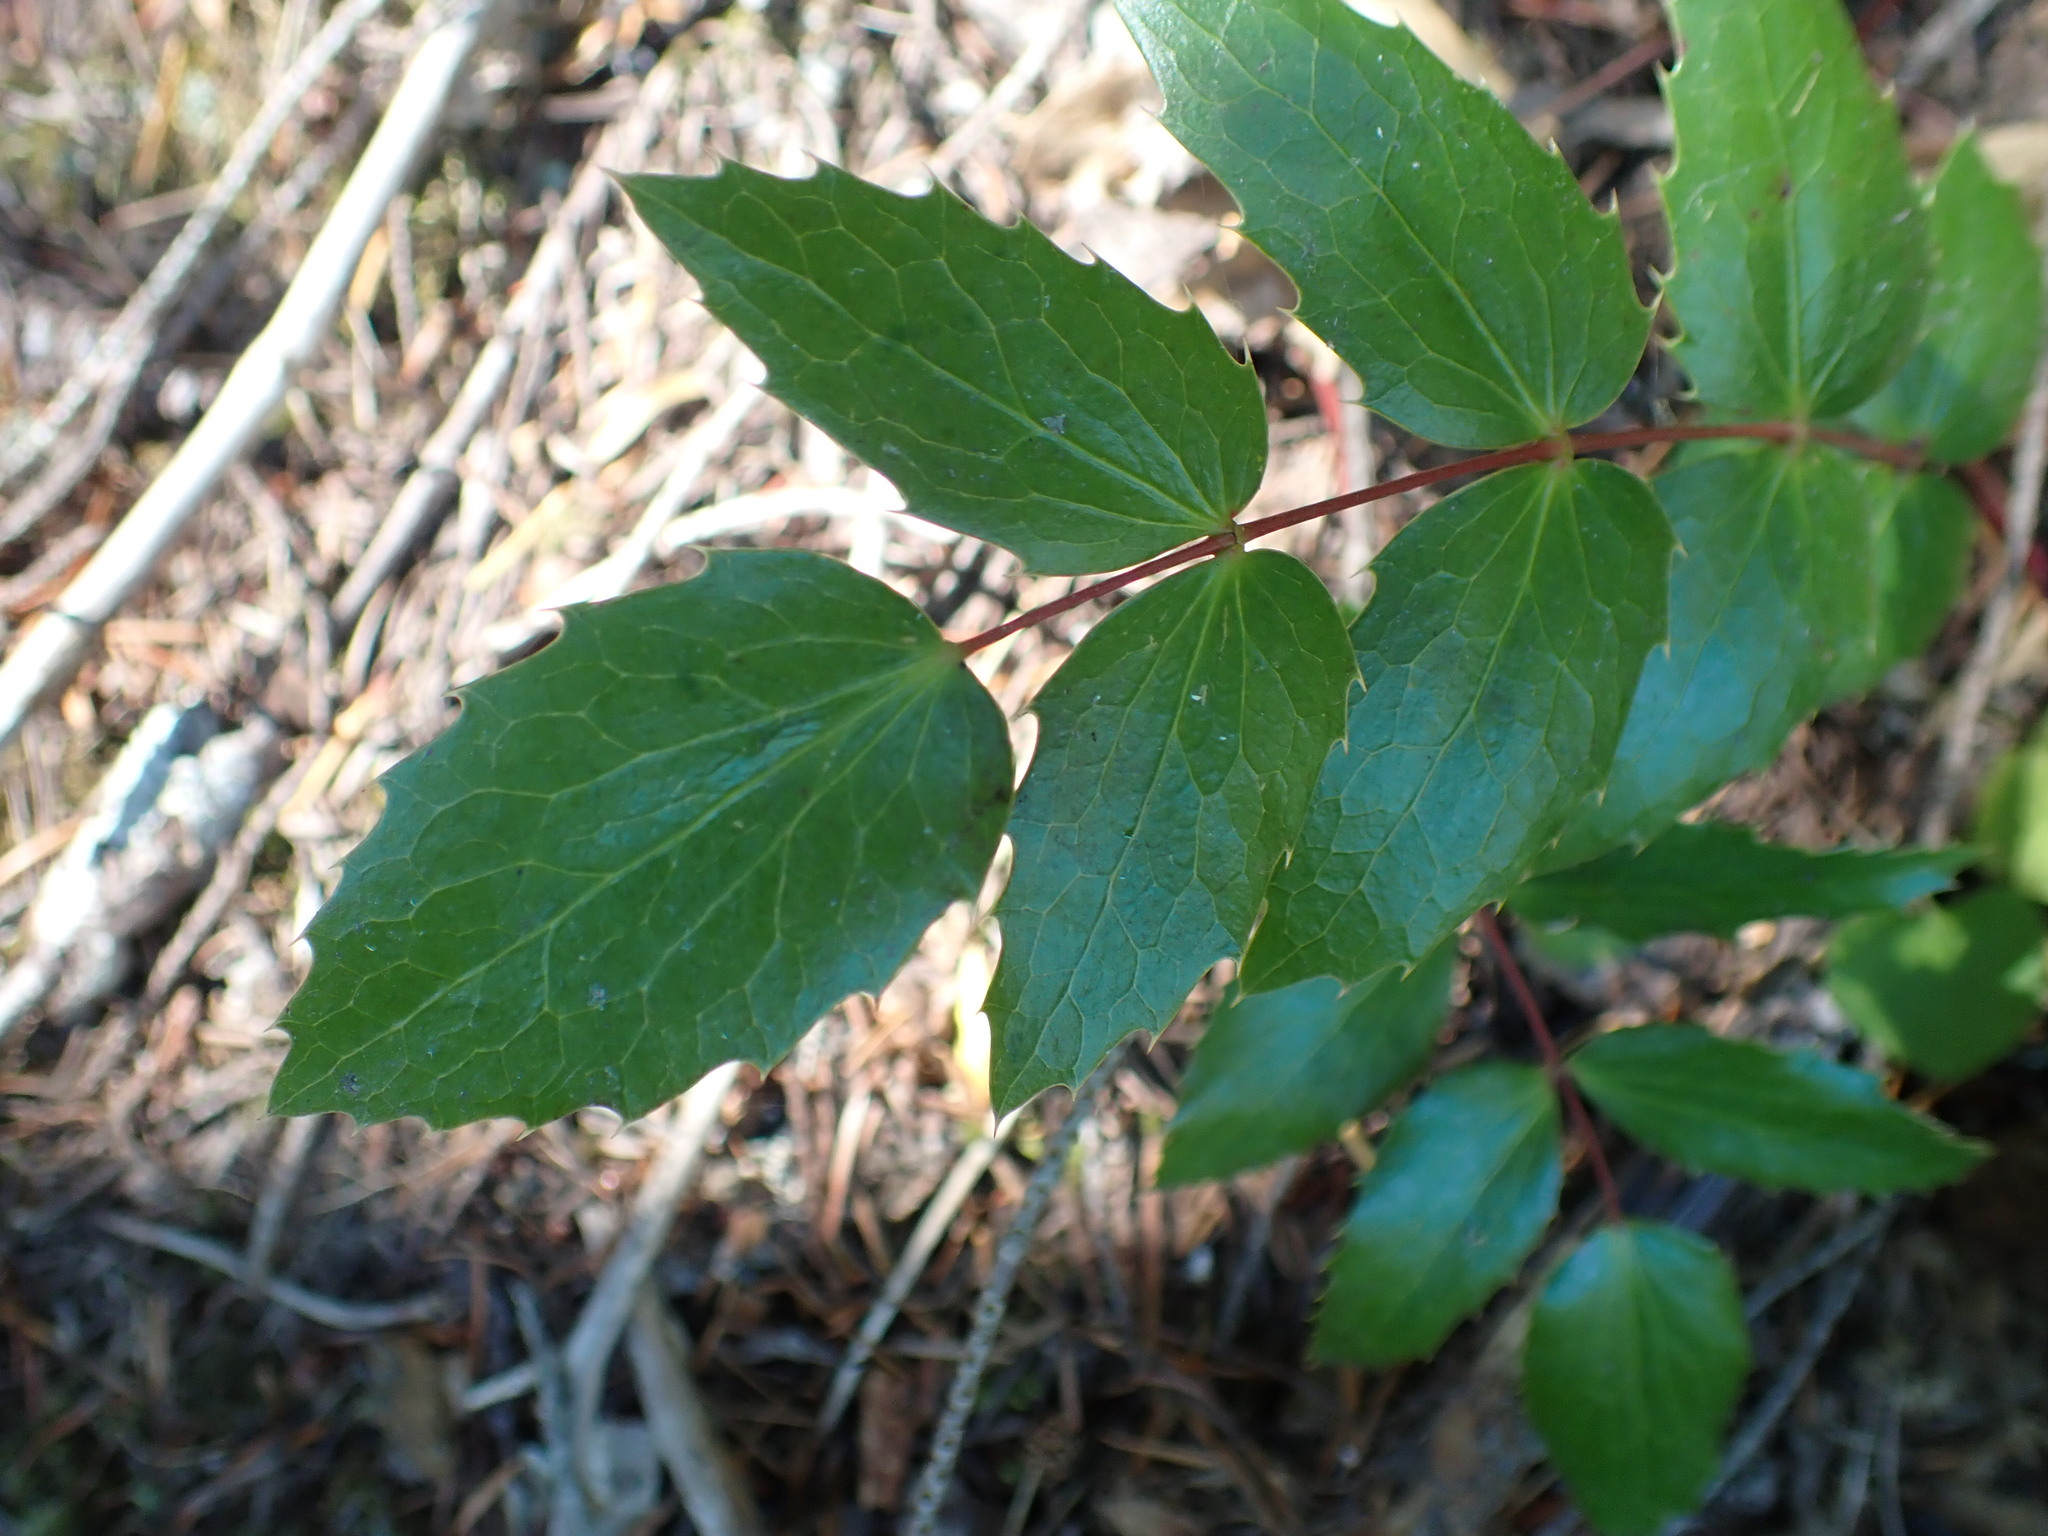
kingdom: Plantae
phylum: Tracheophyta
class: Magnoliopsida
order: Ranunculales
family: Berberidaceae
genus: Mahonia
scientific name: Mahonia nervosa
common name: Cascade oregon-grape
